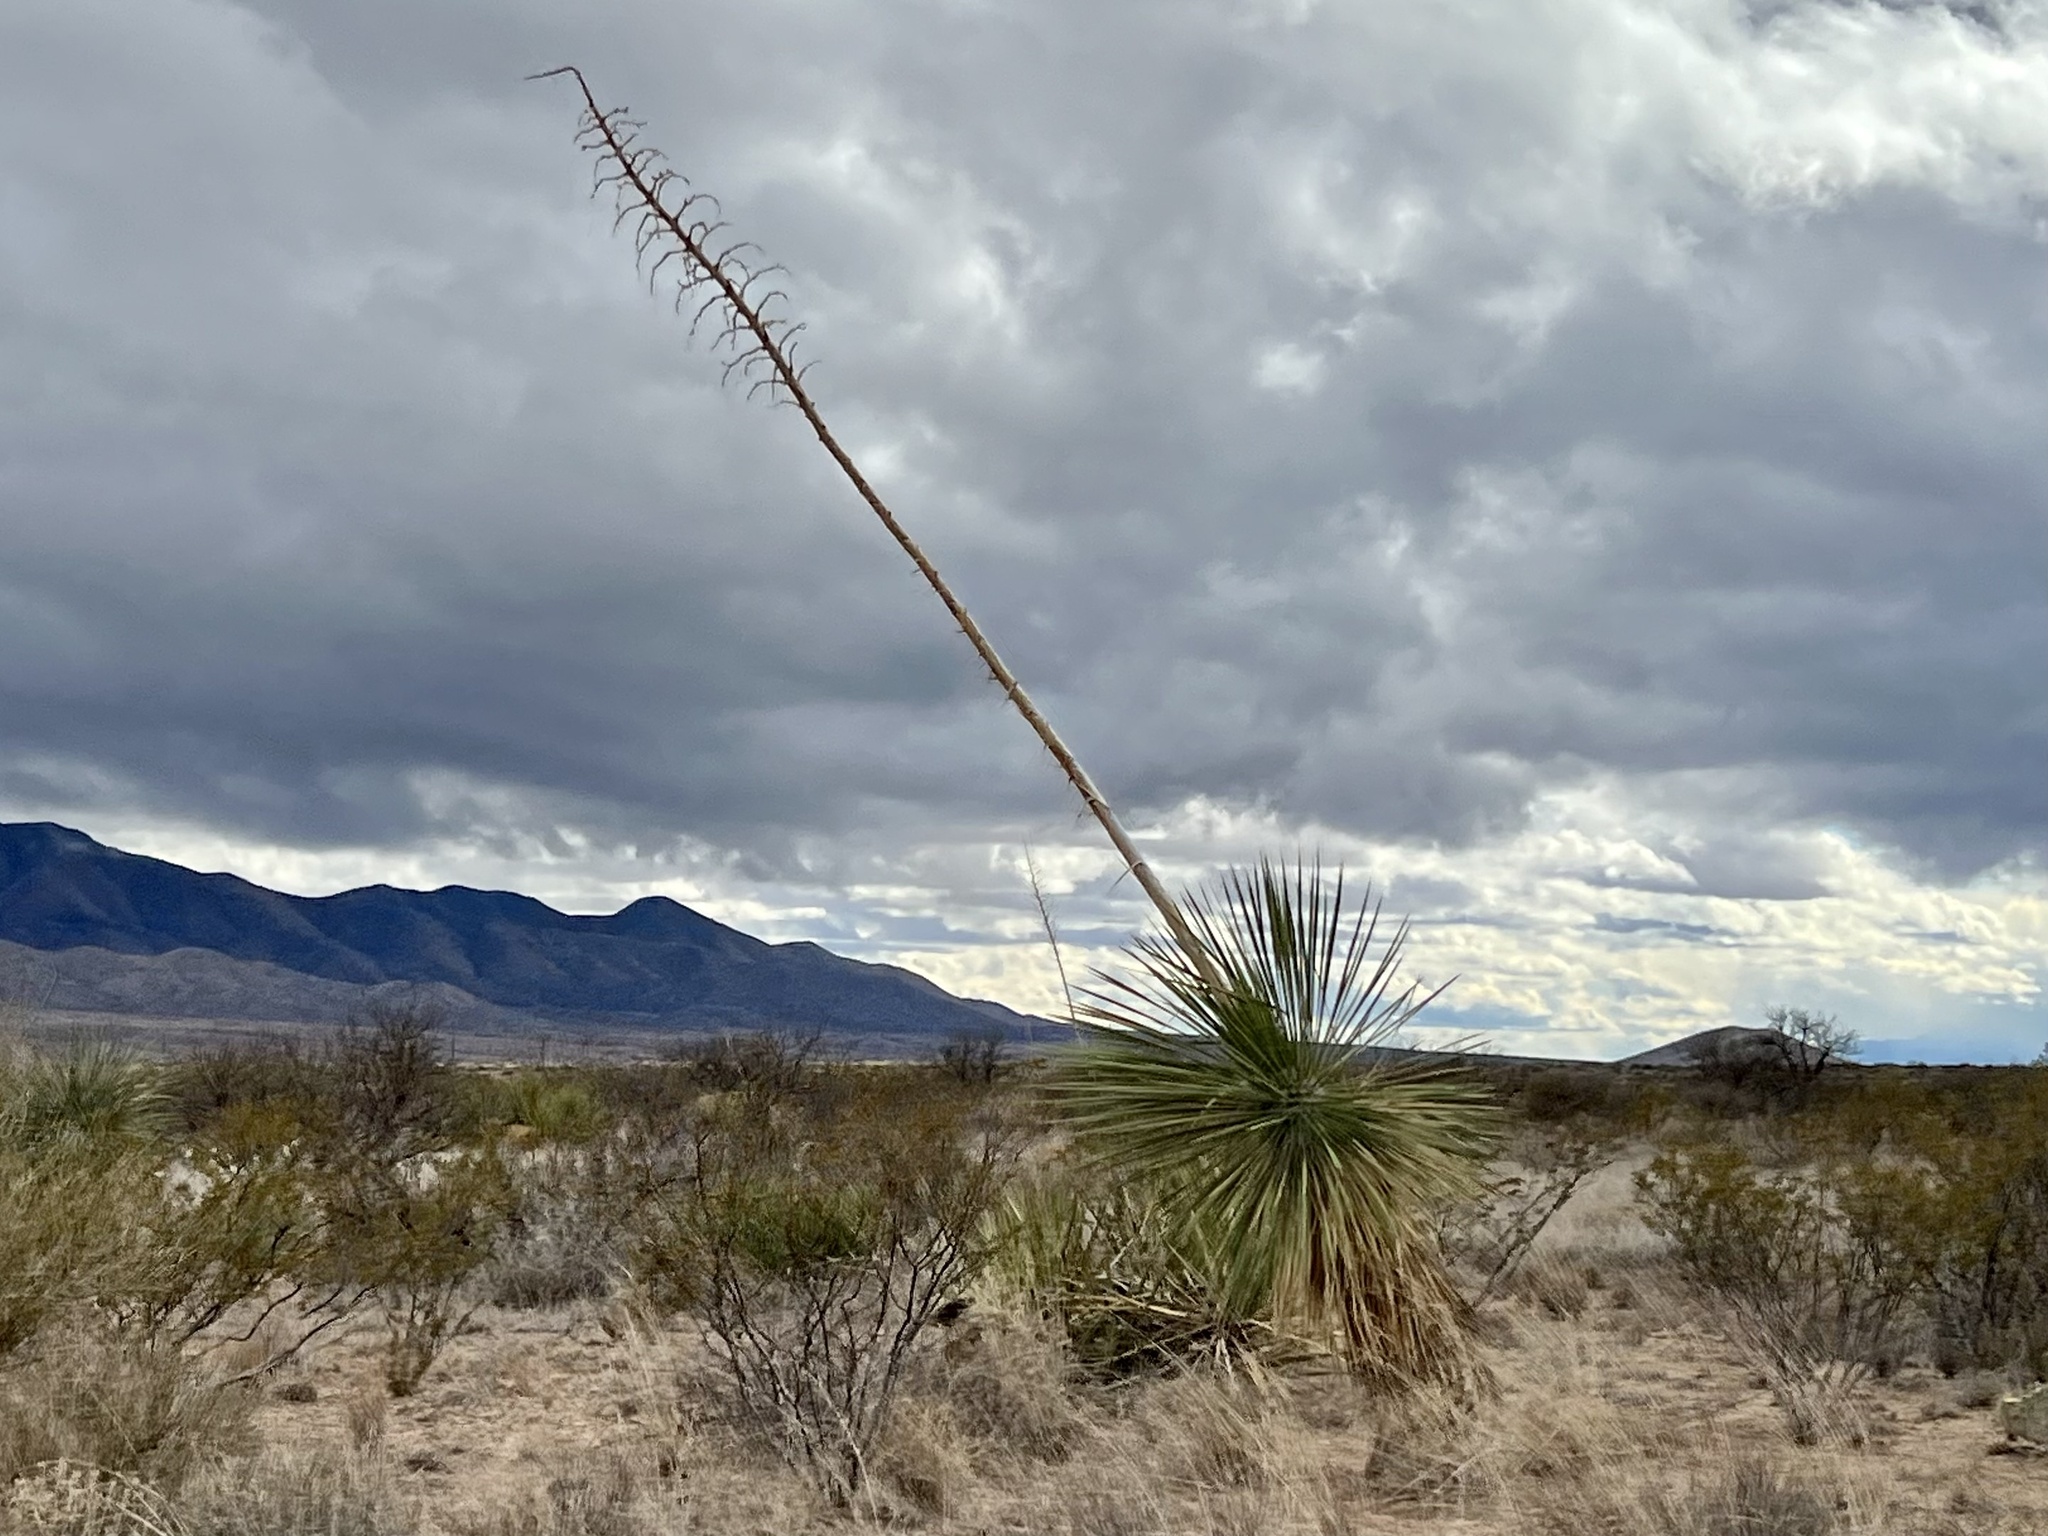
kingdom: Plantae
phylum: Tracheophyta
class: Liliopsida
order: Asparagales
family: Asparagaceae
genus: Yucca
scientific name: Yucca elata
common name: Palmella
